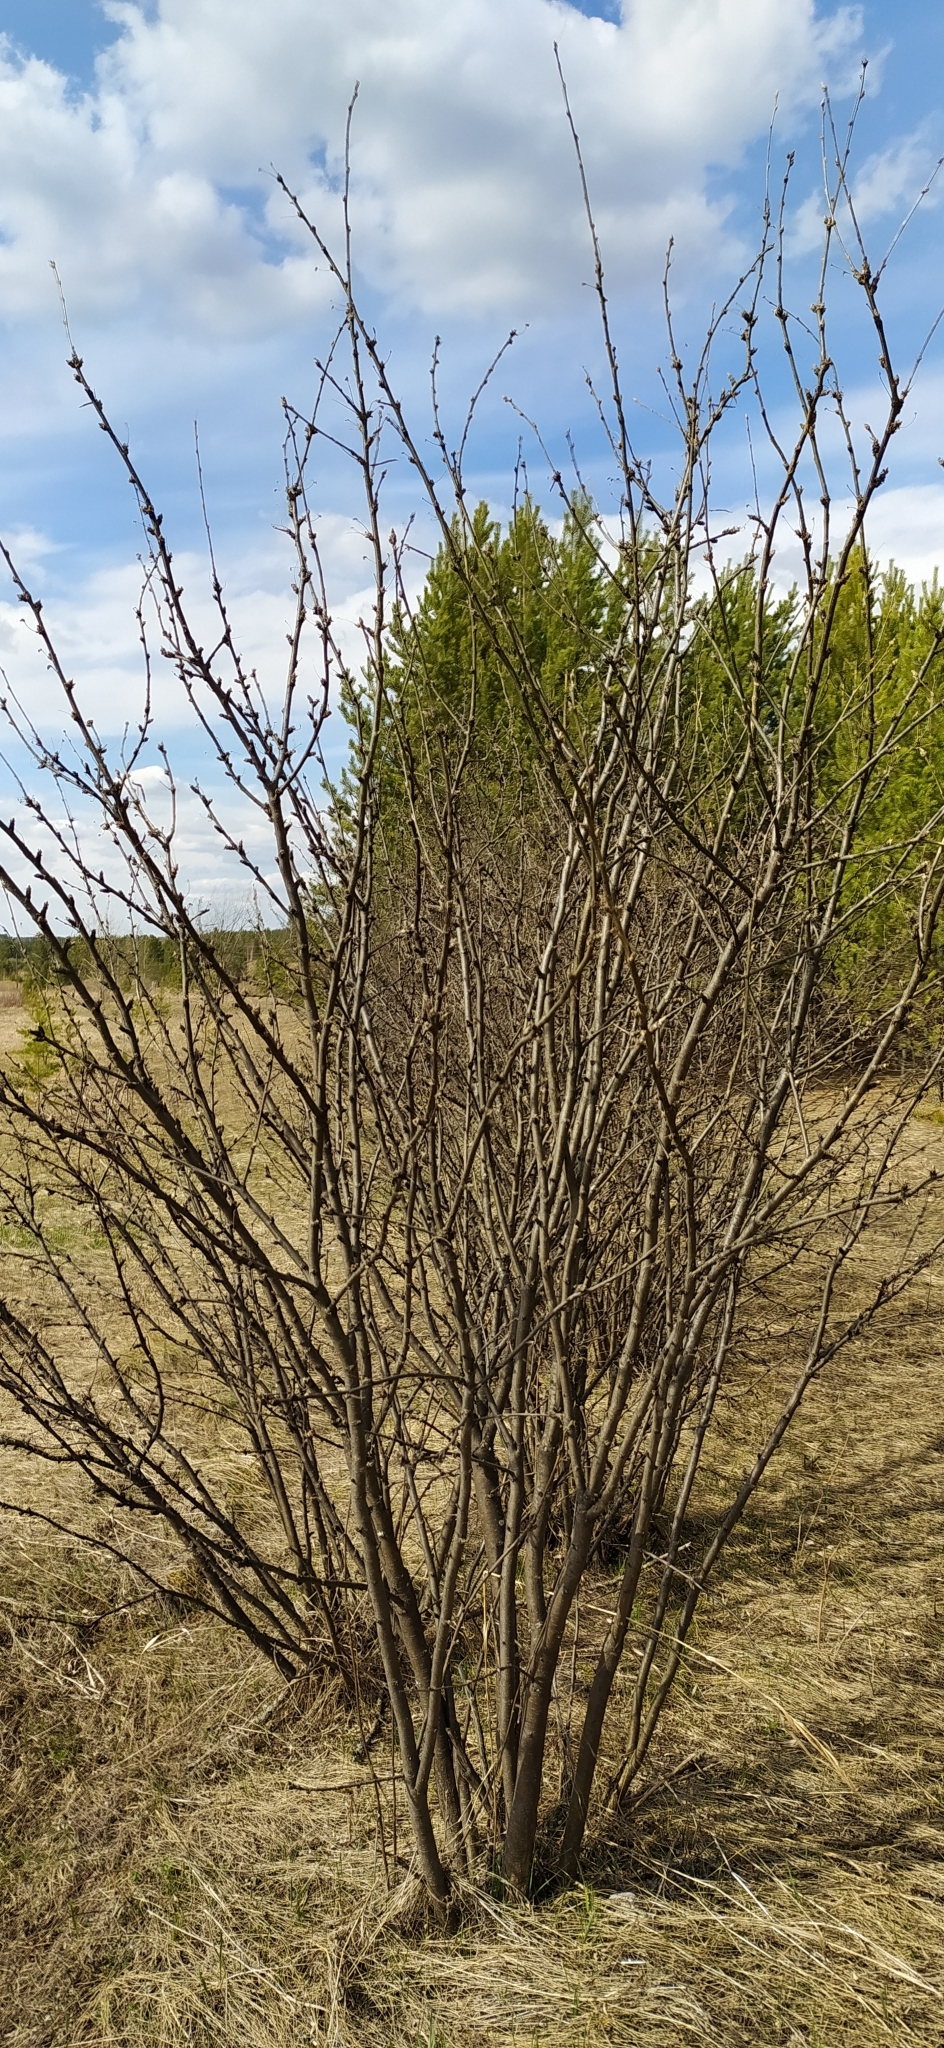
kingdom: Plantae
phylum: Tracheophyta
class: Magnoliopsida
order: Fabales
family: Fabaceae
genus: Caragana
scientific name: Caragana arborescens
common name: Siberian peashrub
